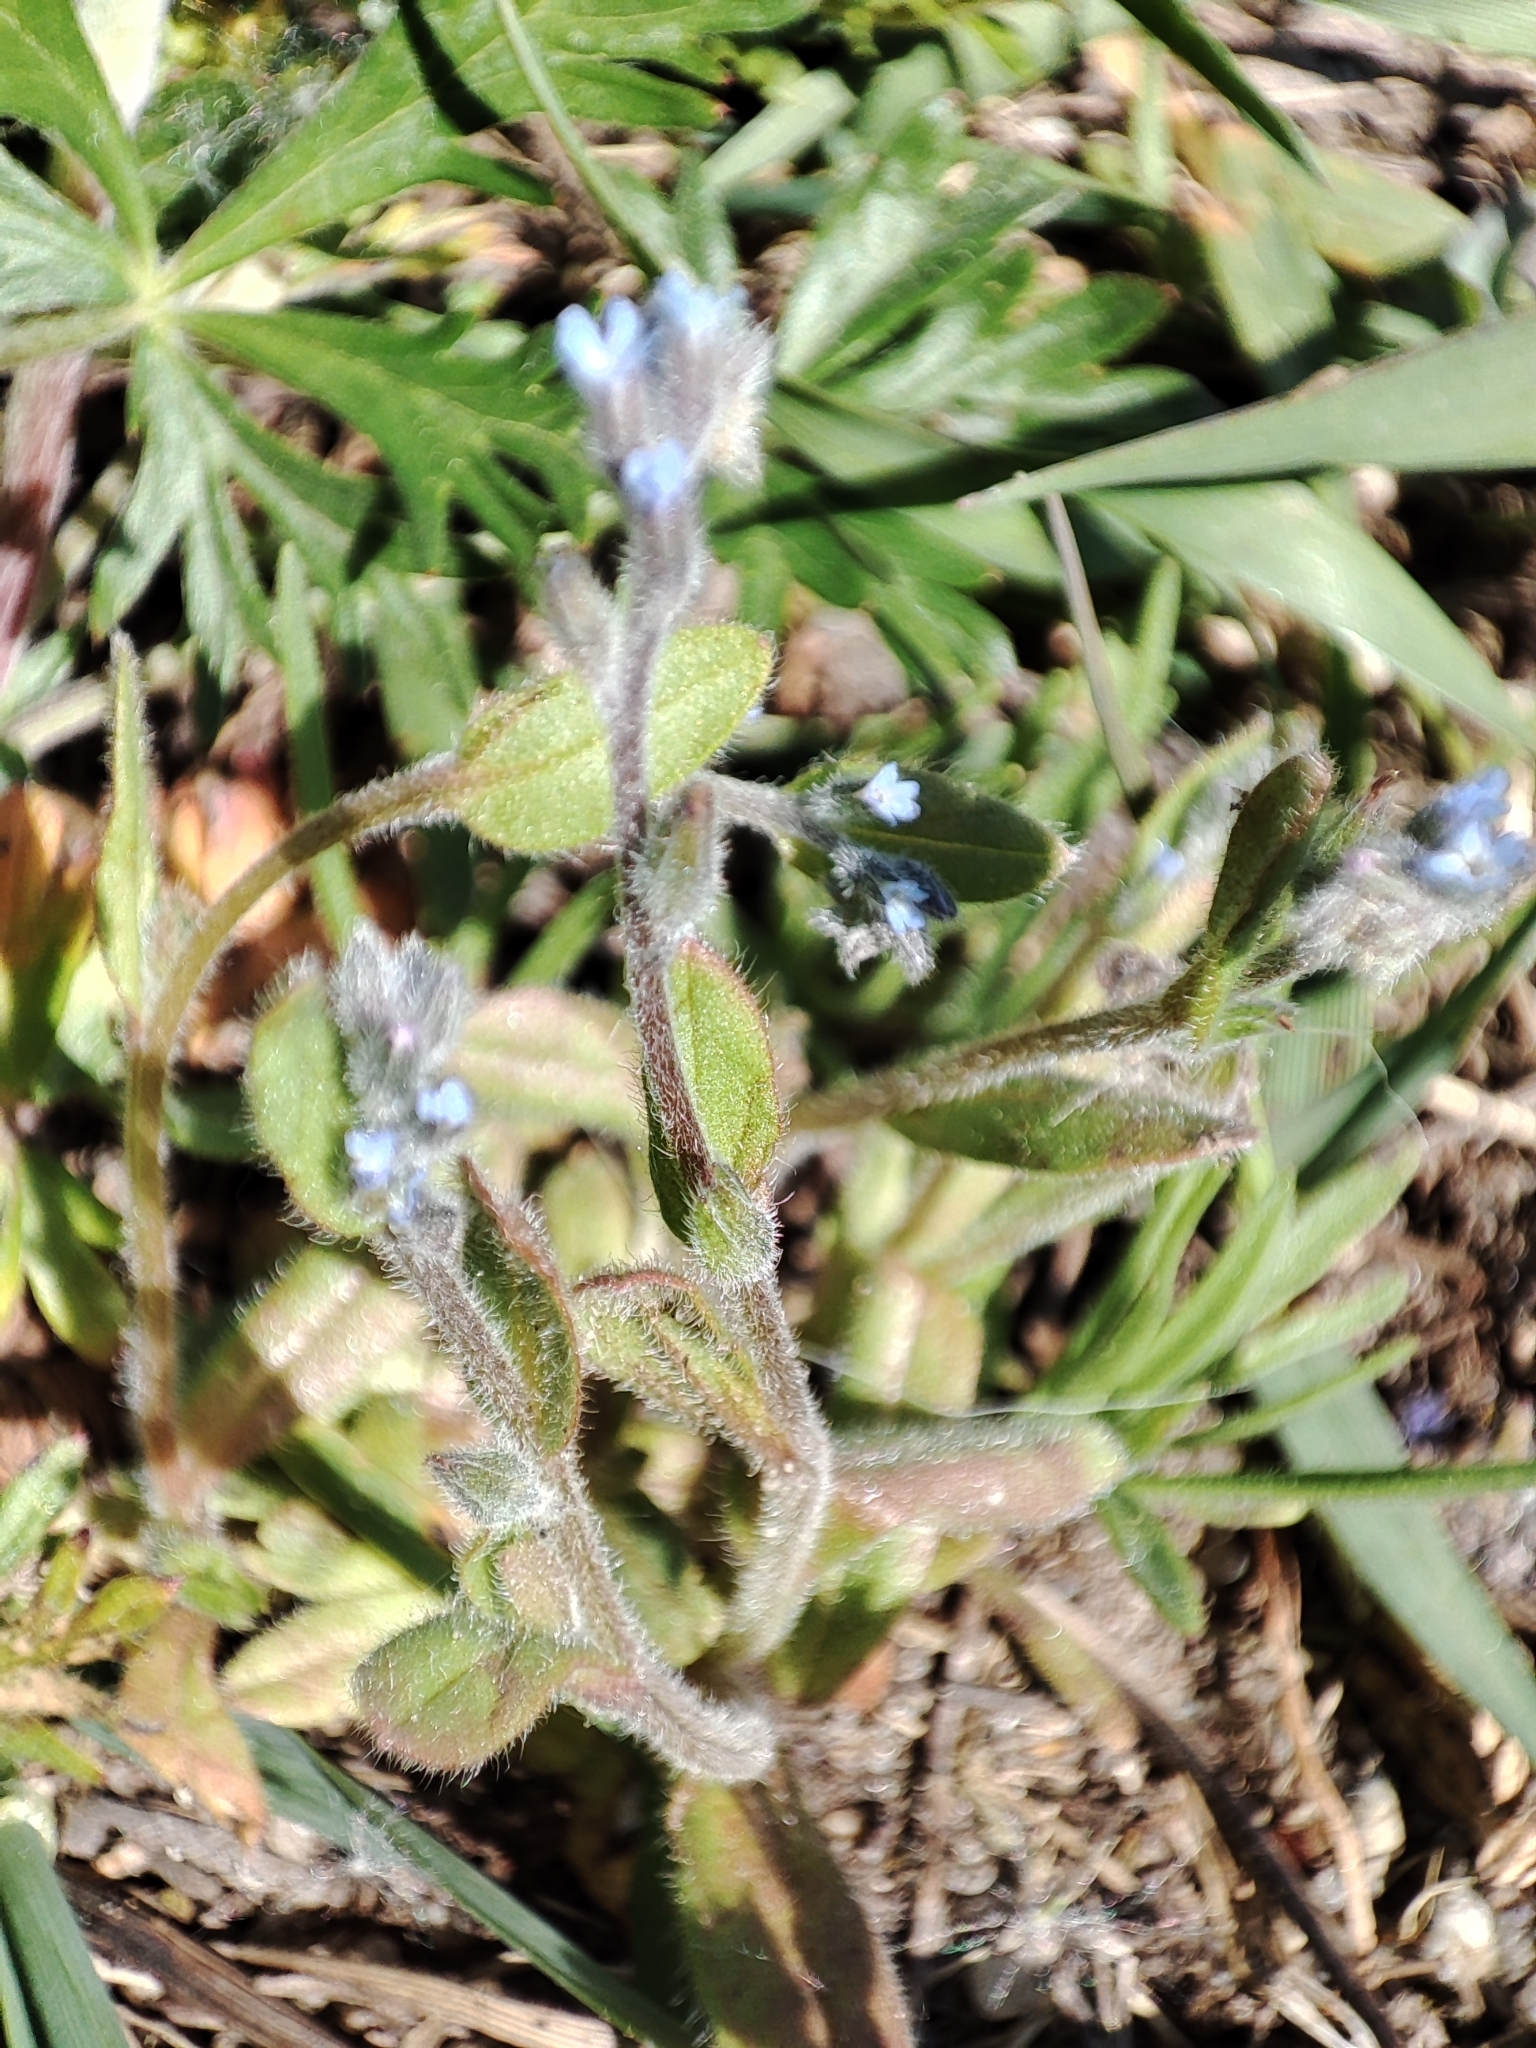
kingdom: Plantae
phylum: Tracheophyta
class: Magnoliopsida
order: Boraginales
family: Boraginaceae
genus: Myosotis
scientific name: Myosotis stricta
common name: Strict forget-me-not
